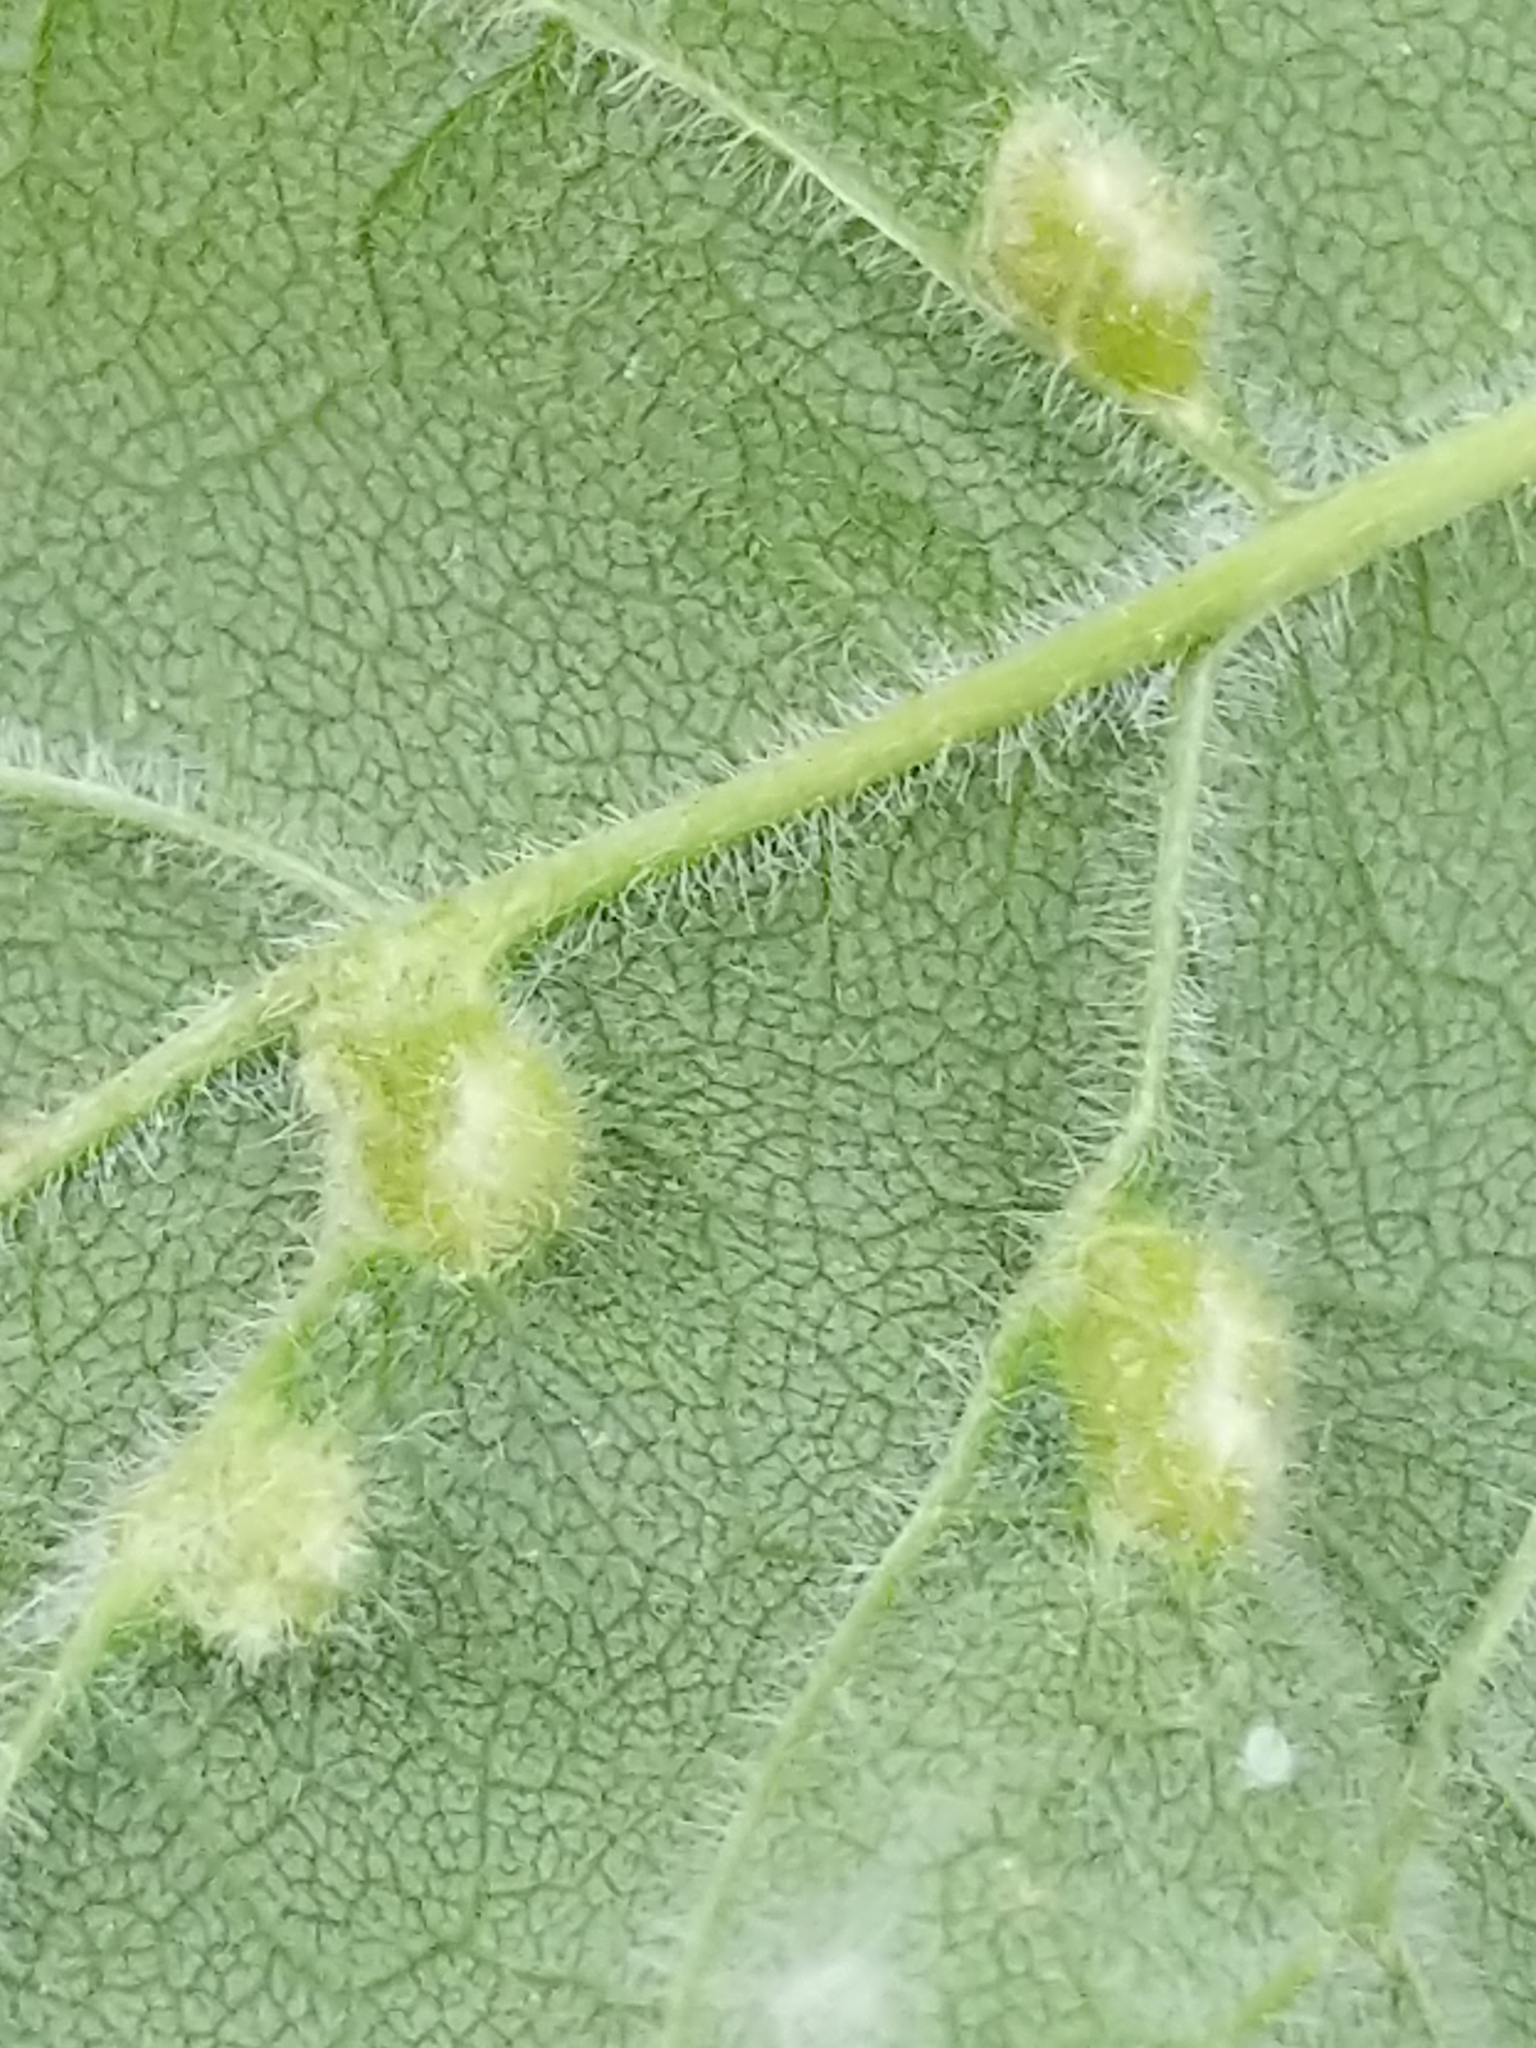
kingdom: Animalia
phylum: Arthropoda
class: Arachnida
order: Trombidiformes
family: Eriophyidae
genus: Aceria
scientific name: Aceria fraxinicola
